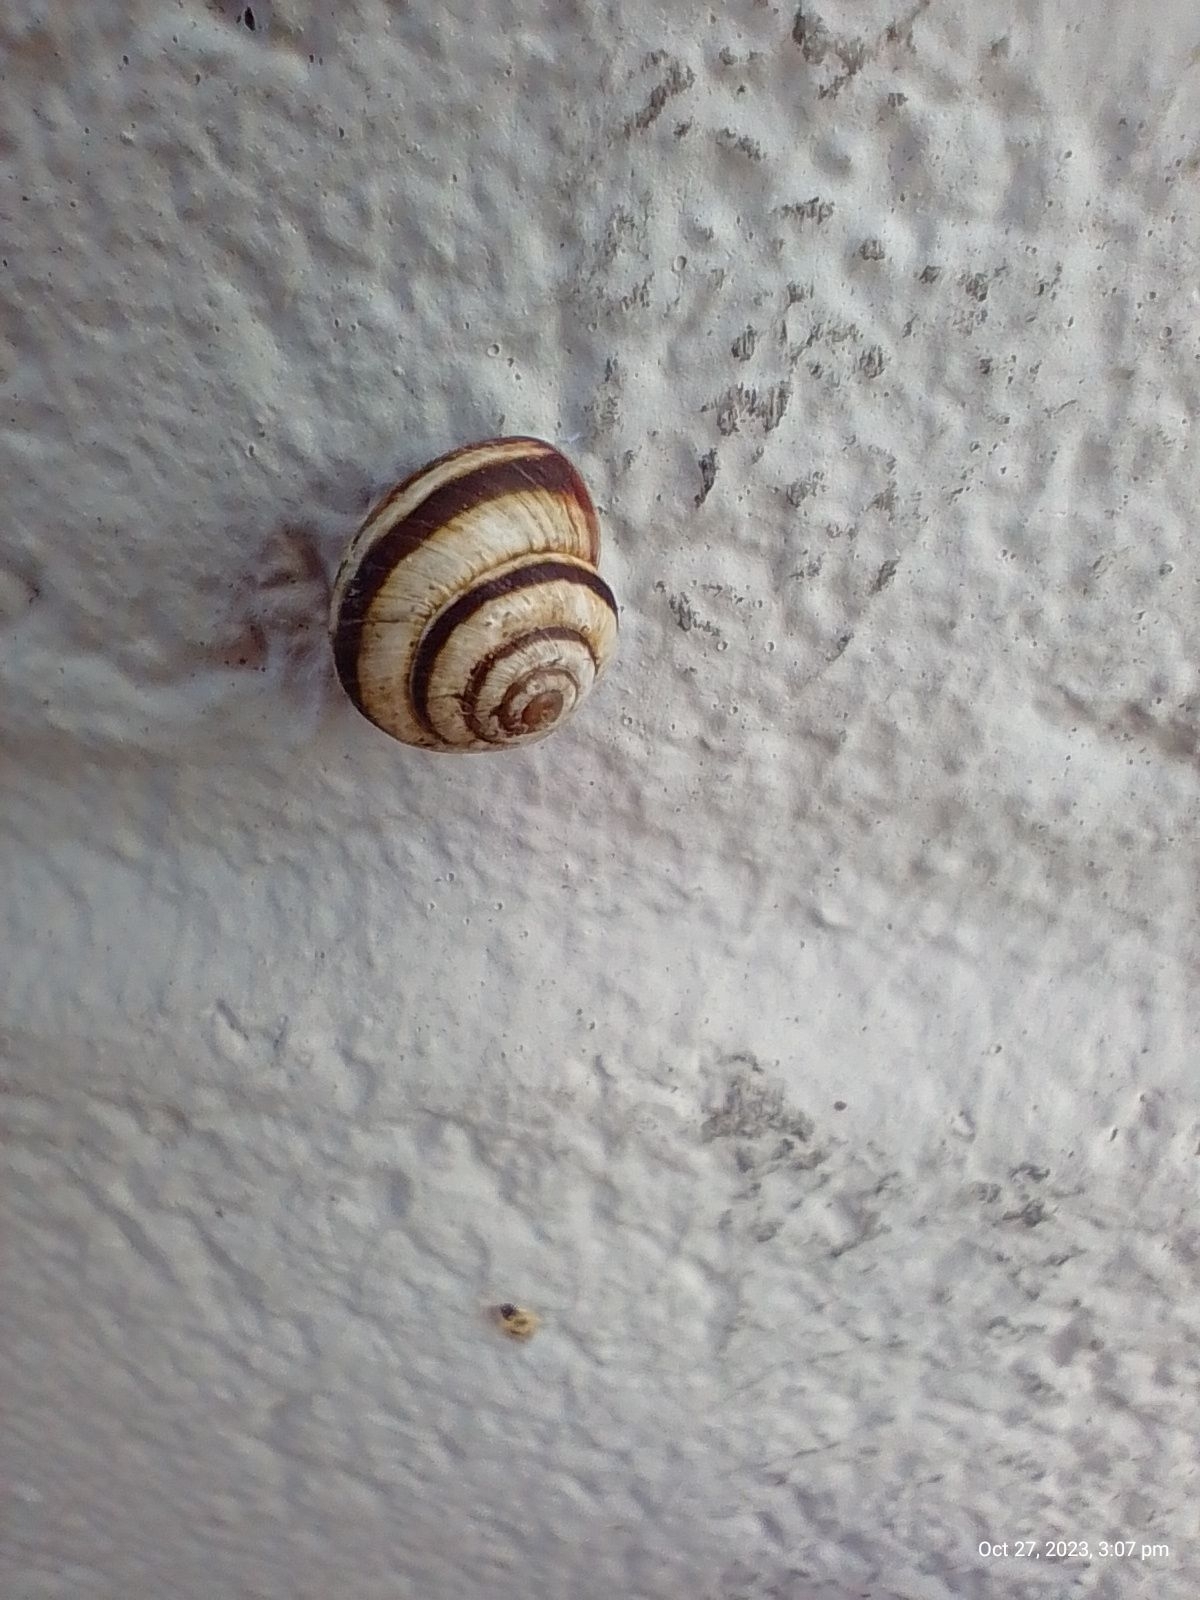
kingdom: Animalia
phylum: Mollusca
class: Gastropoda
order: Stylommatophora
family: Geomitridae
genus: Cernuella
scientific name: Cernuella virgata
